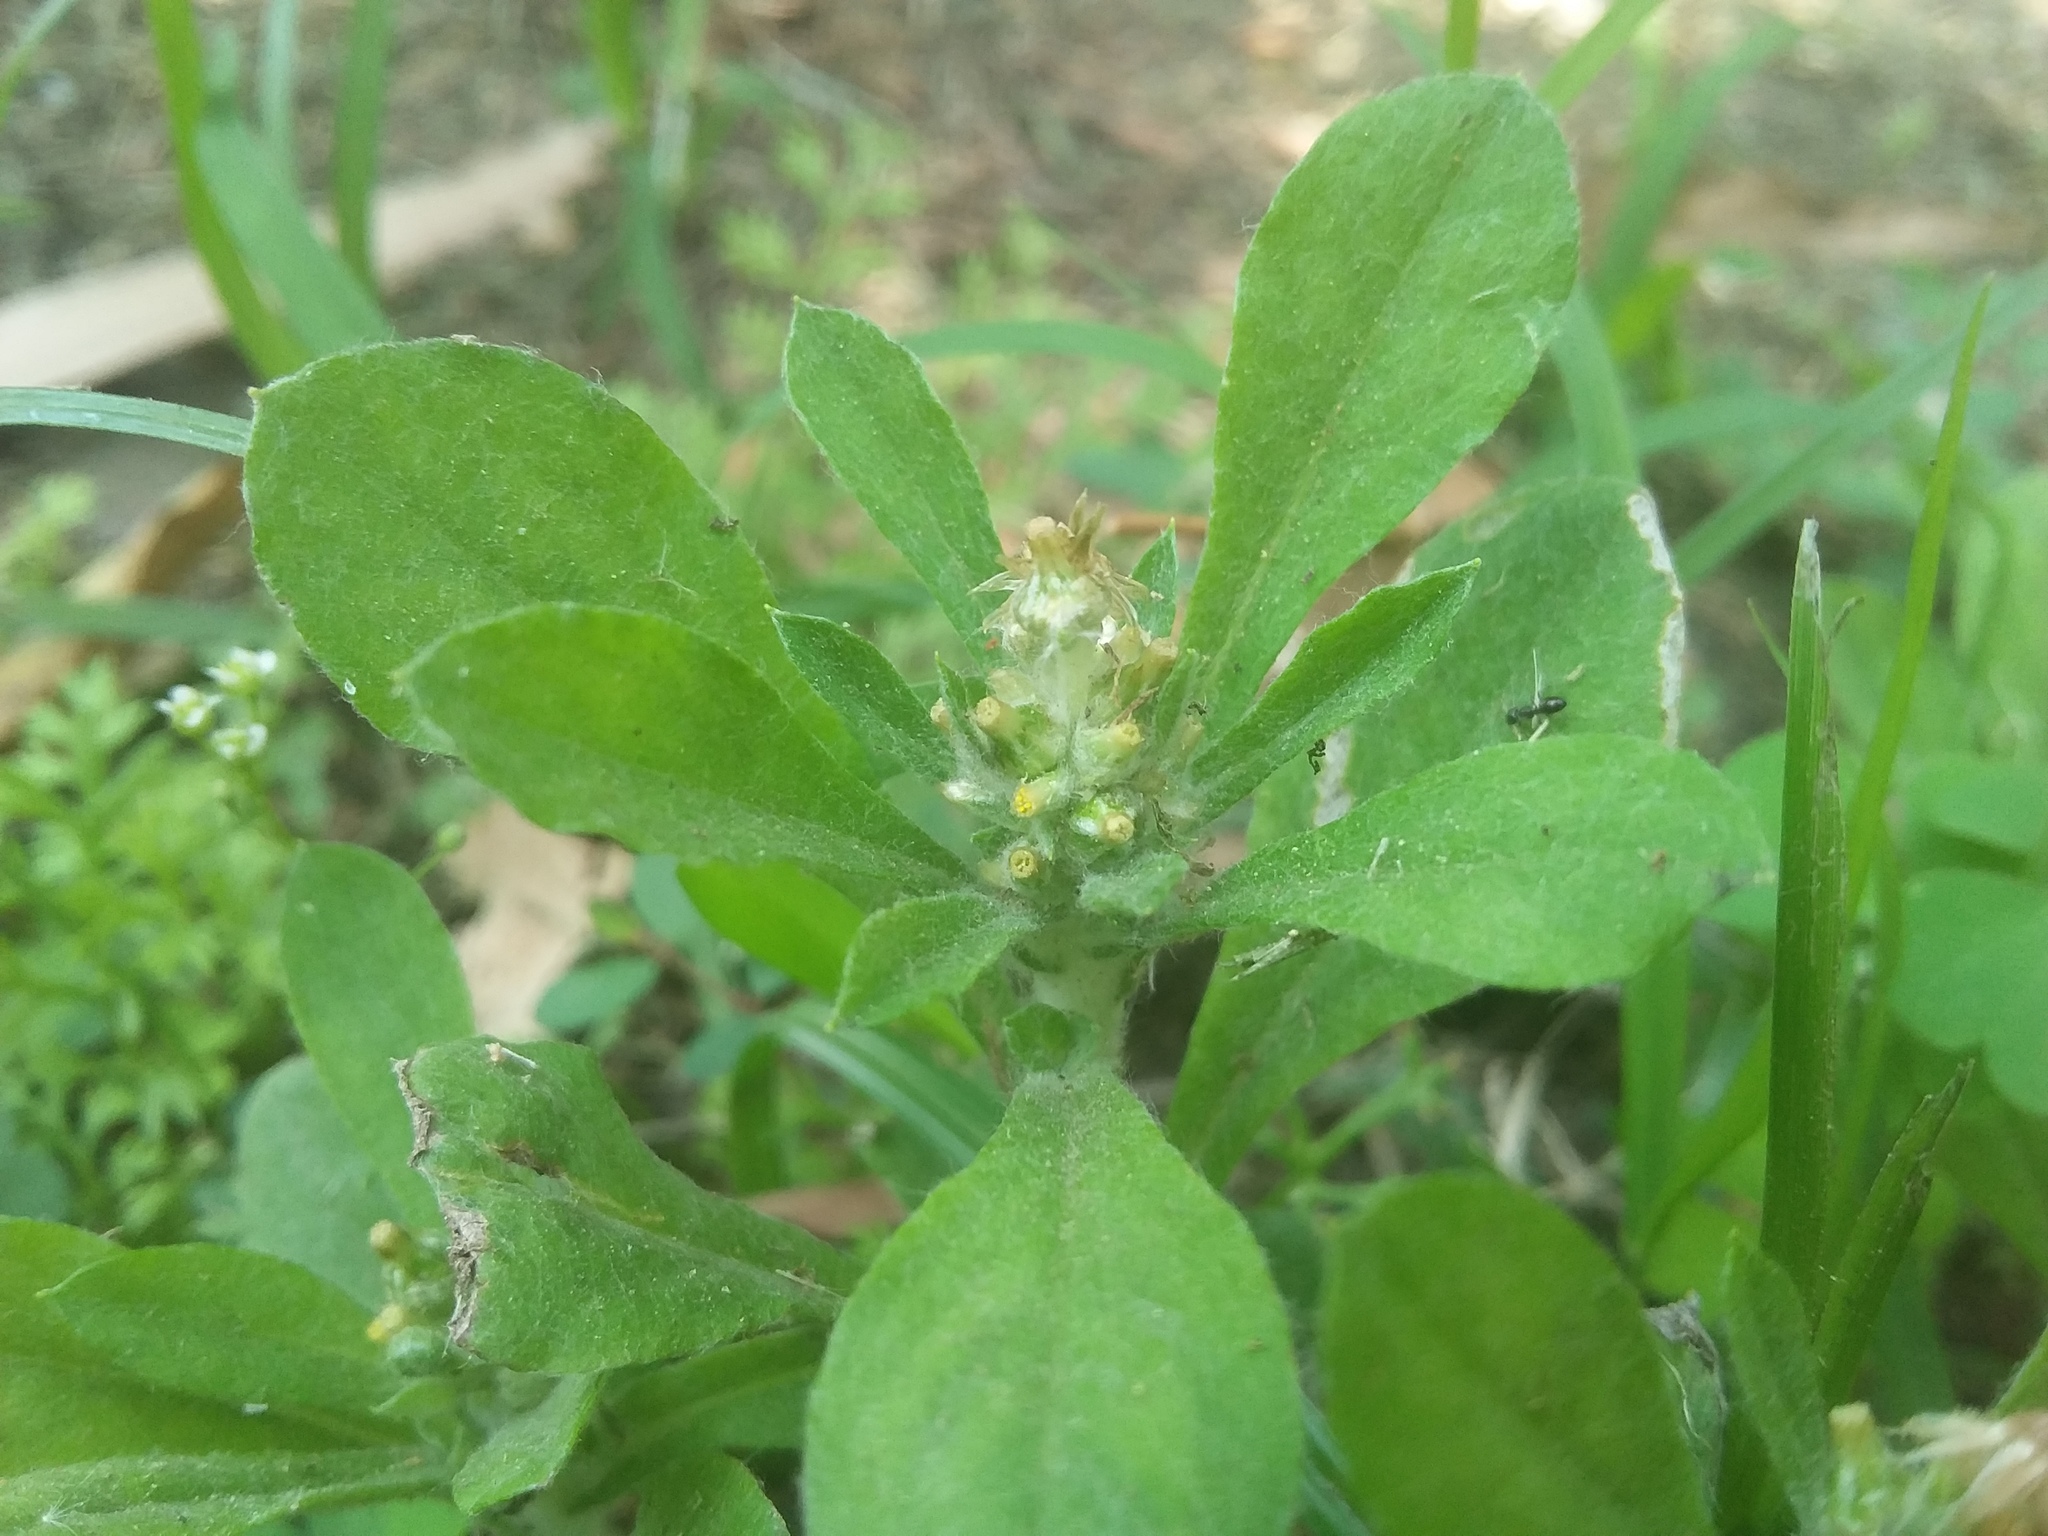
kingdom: Plantae
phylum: Tracheophyta
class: Magnoliopsida
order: Asterales
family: Asteraceae
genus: Gamochaeta
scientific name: Gamochaeta pensylvanica
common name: Pennsylvania everlasting
